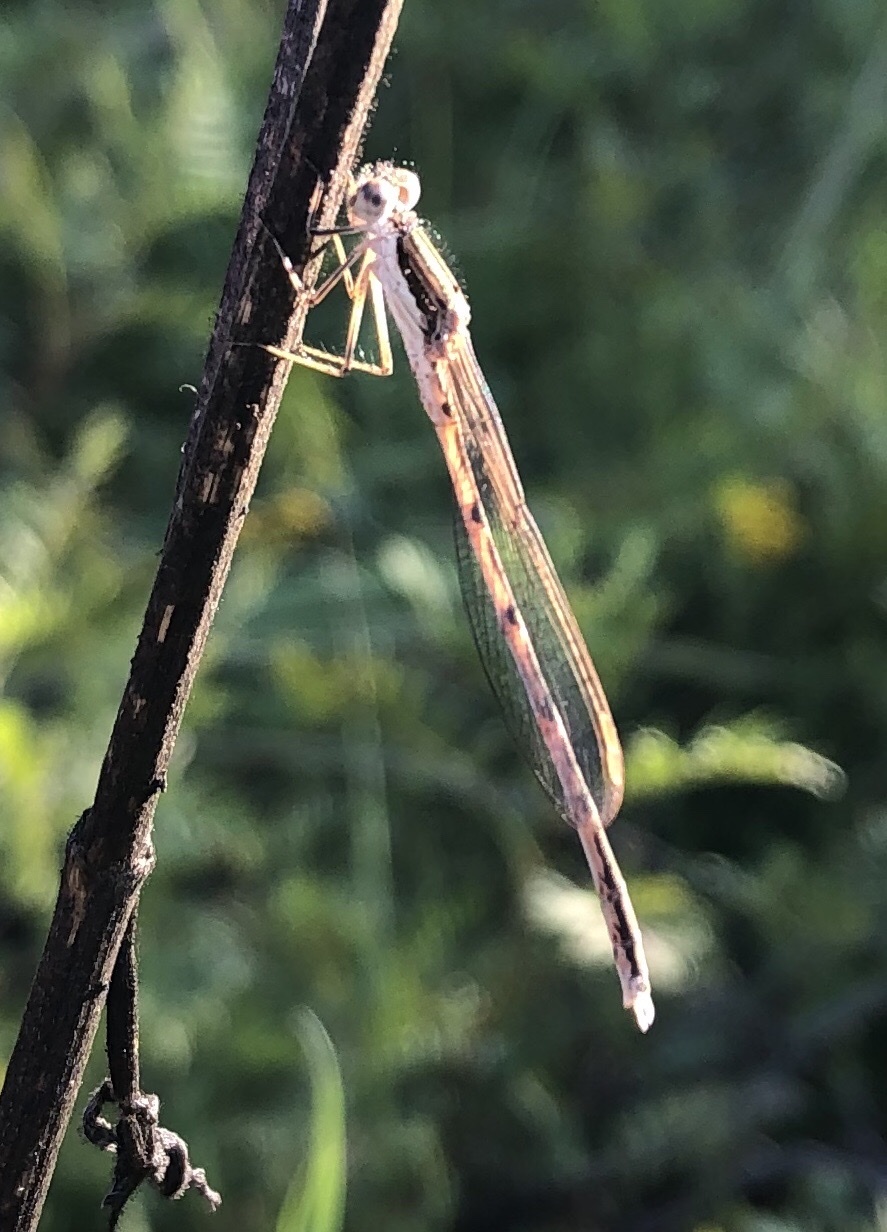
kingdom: Animalia
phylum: Arthropoda
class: Insecta
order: Odonata
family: Lestidae
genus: Sympecma
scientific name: Sympecma fusca
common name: Common winter damsel
